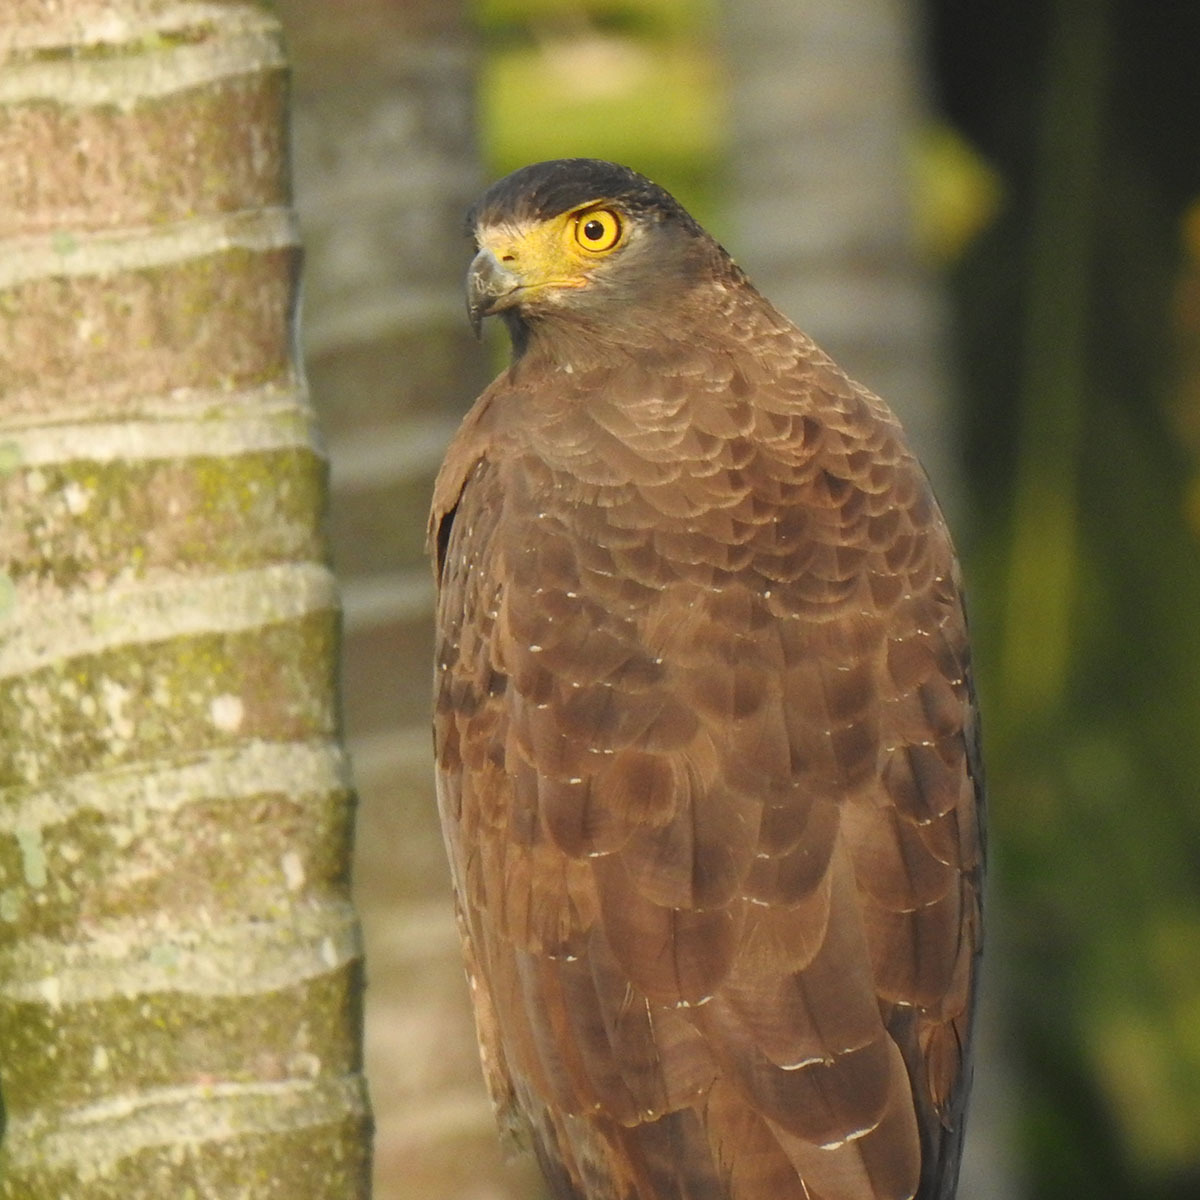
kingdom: Animalia
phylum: Chordata
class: Aves
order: Accipitriformes
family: Accipitridae
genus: Spilornis
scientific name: Spilornis cheela
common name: Crested serpent eagle
